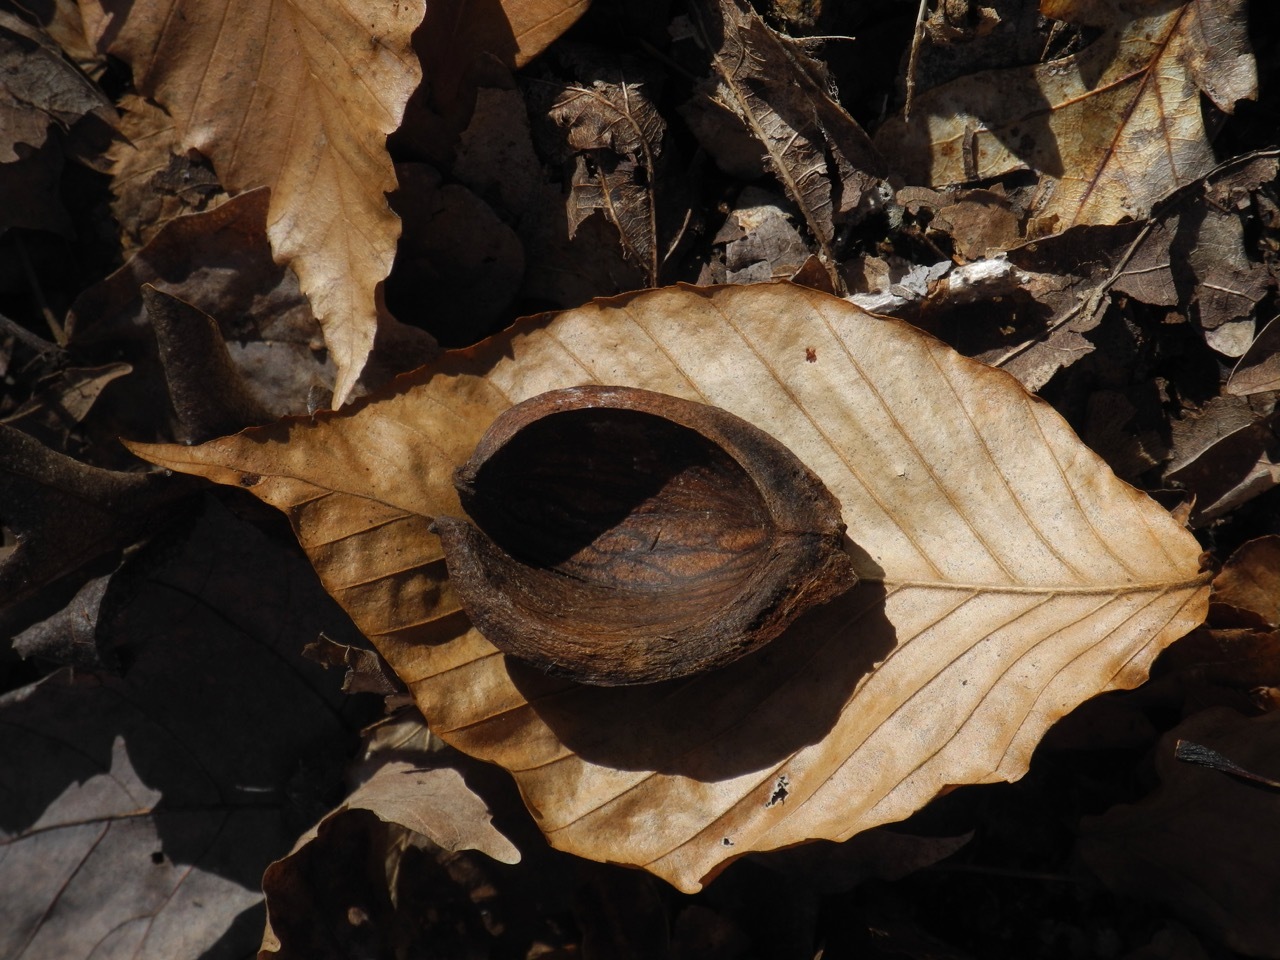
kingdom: Plantae
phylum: Tracheophyta
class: Magnoliopsida
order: Fagales
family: Juglandaceae
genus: Carya
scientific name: Carya glabra
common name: Pignut hickory
